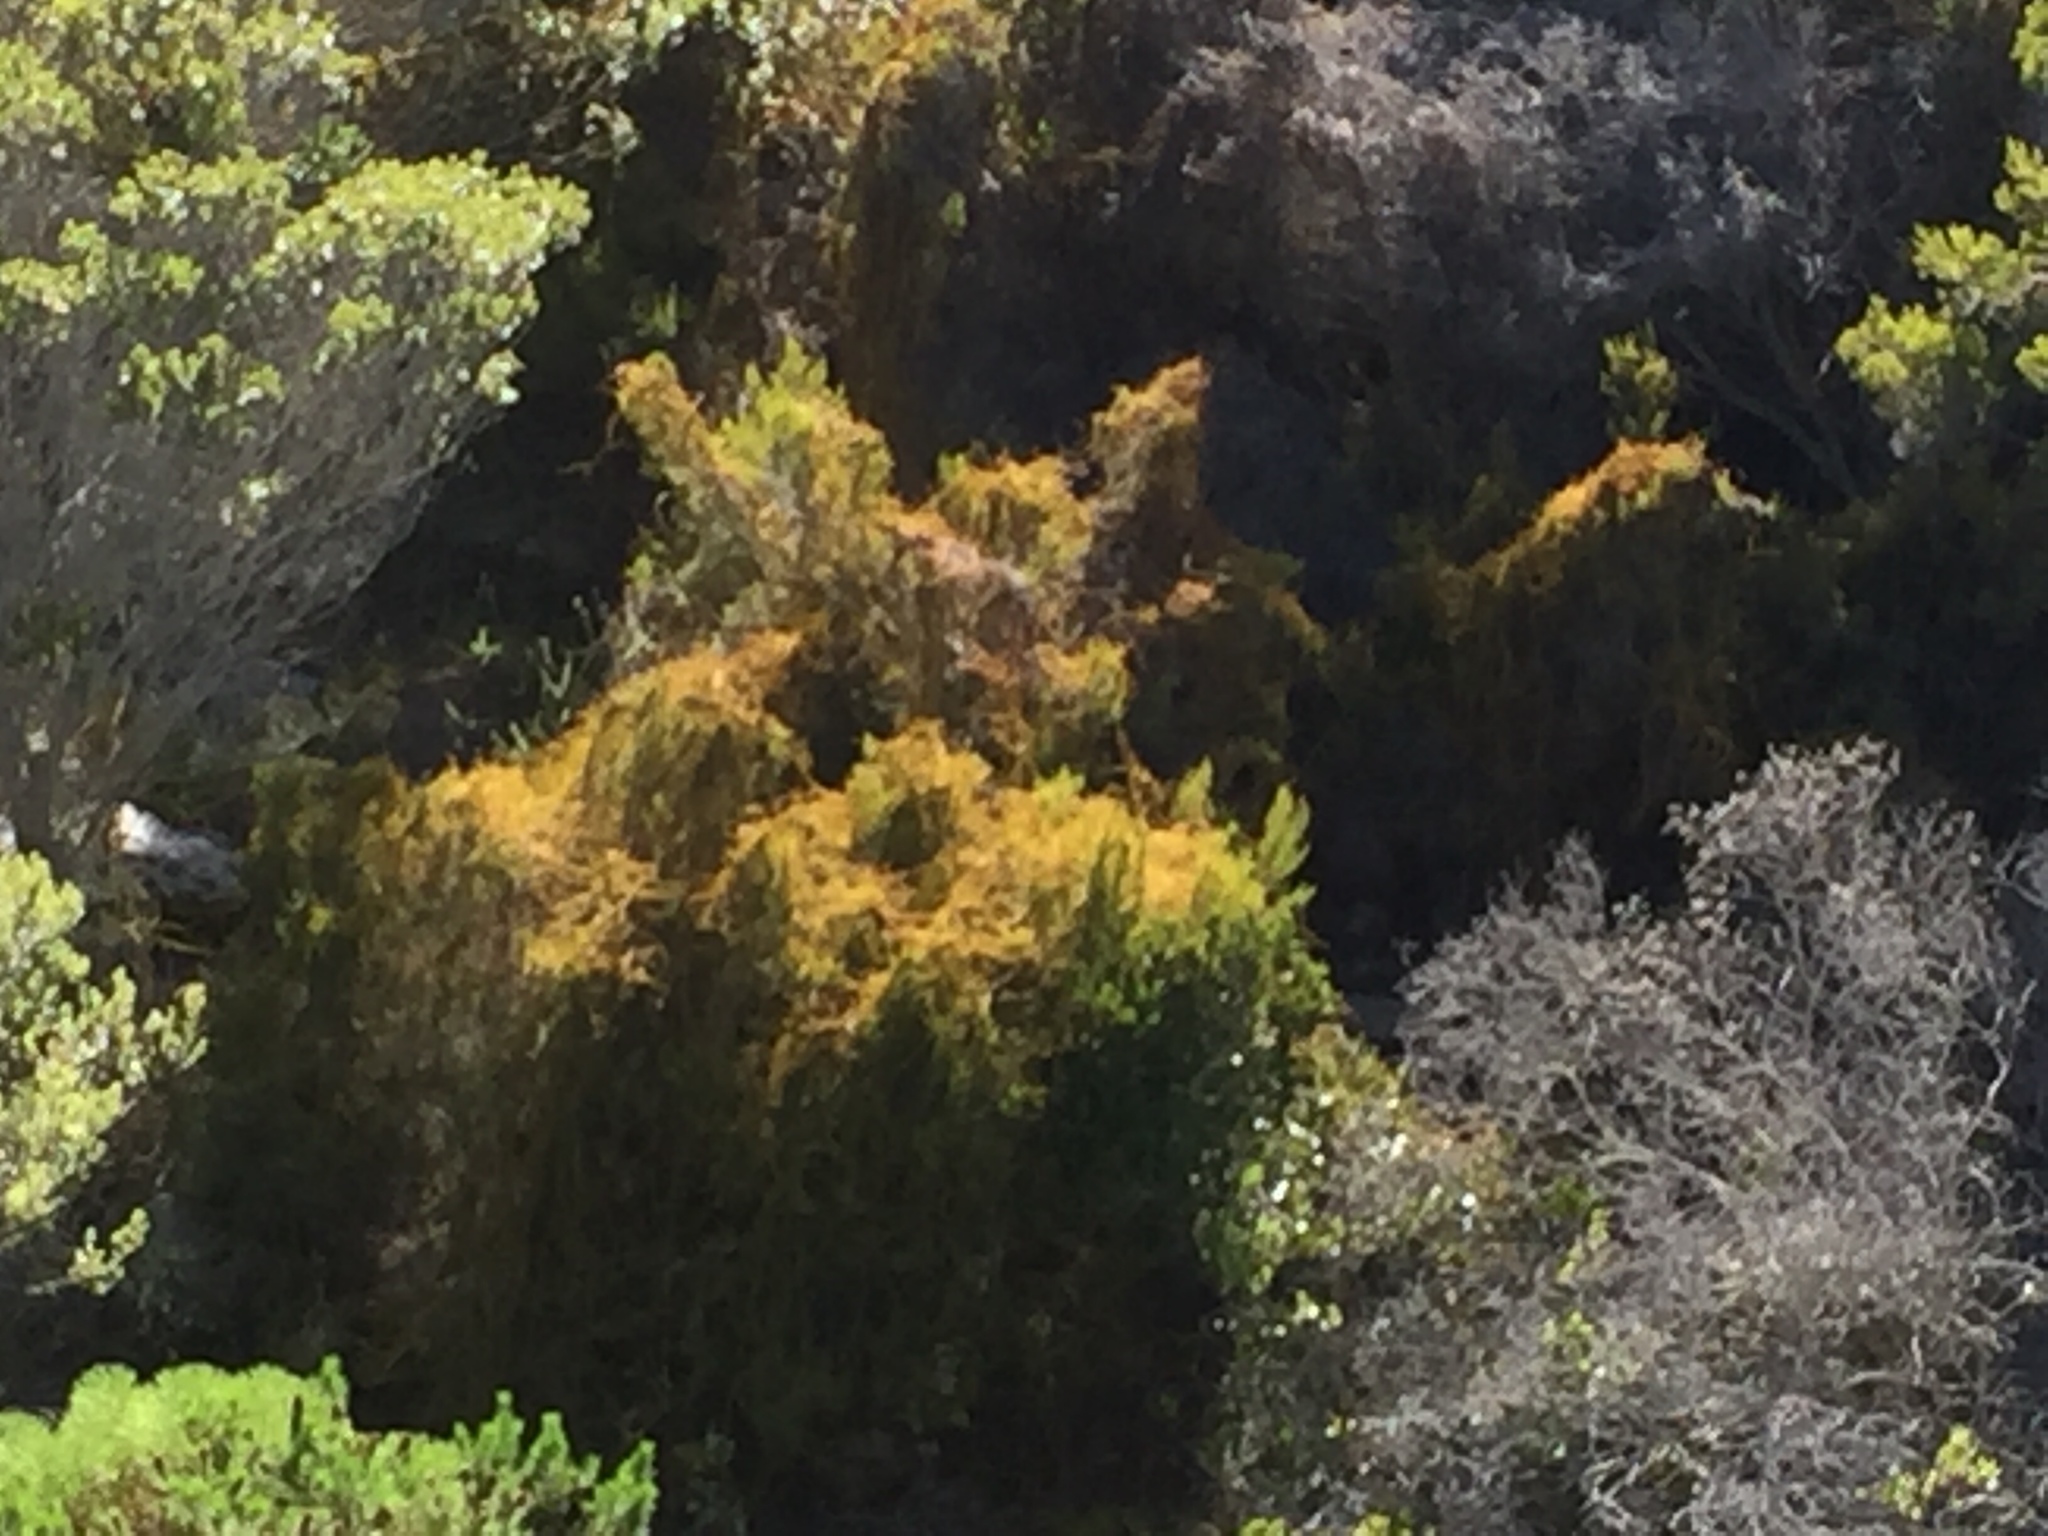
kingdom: Plantae
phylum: Tracheophyta
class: Magnoliopsida
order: Laurales
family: Lauraceae
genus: Cassytha
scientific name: Cassytha ciliolata
